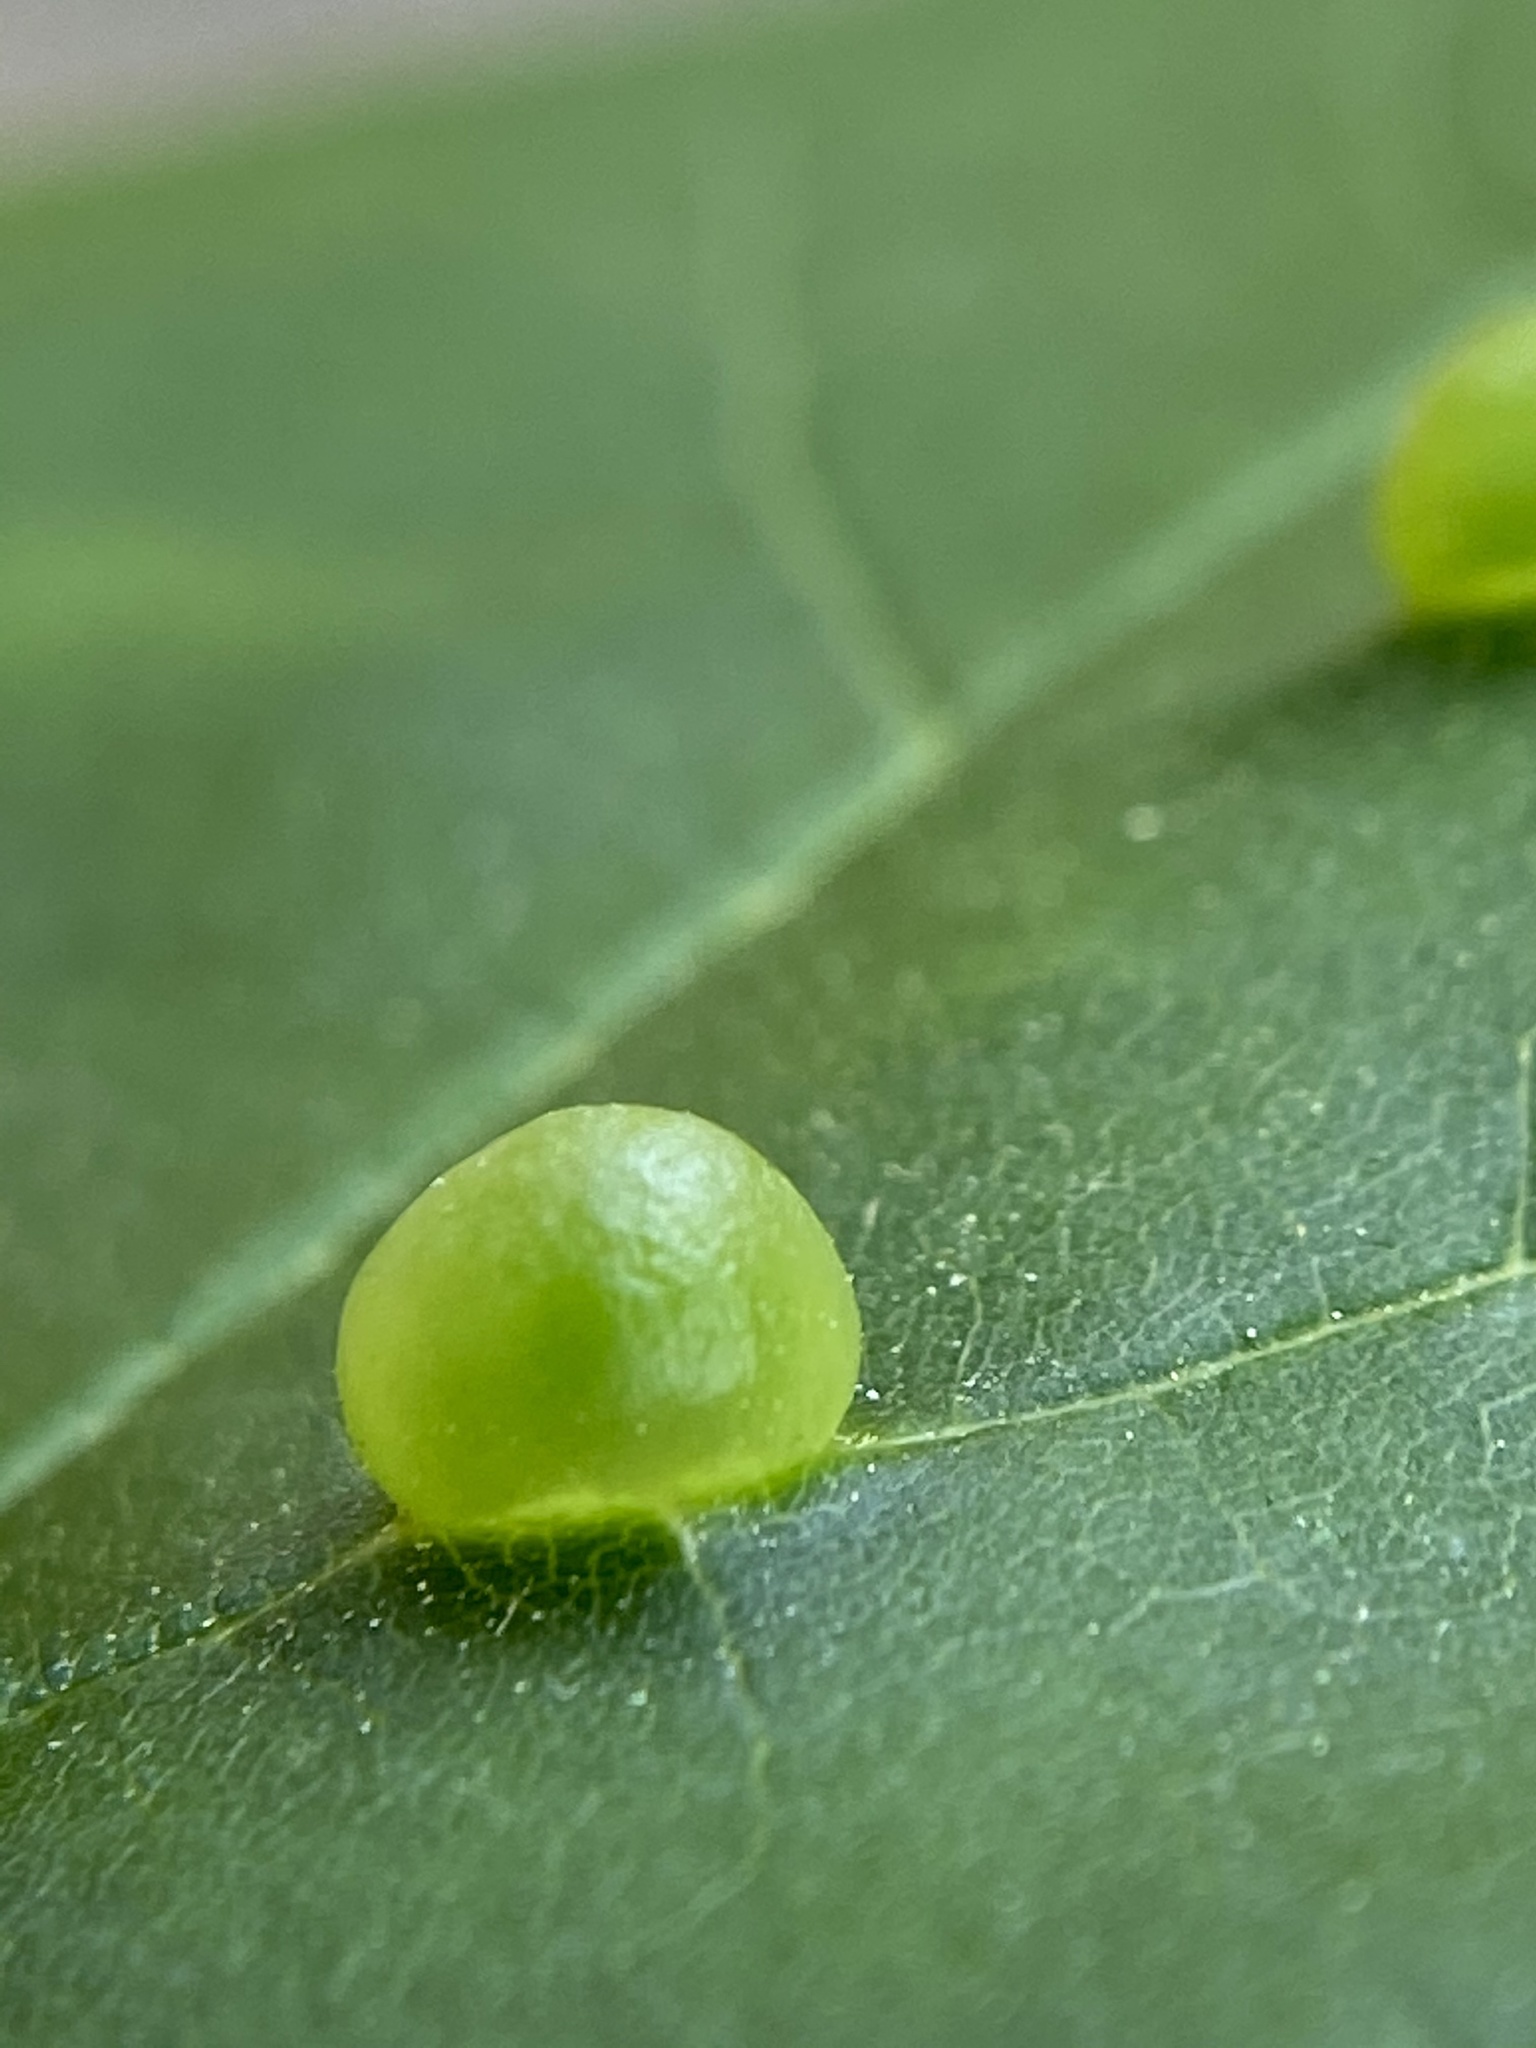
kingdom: Animalia
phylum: Arthropoda
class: Insecta
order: Diptera
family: Cecidomyiidae
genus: Dasineura
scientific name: Dasineura pellex
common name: Ash bullet gall midge
